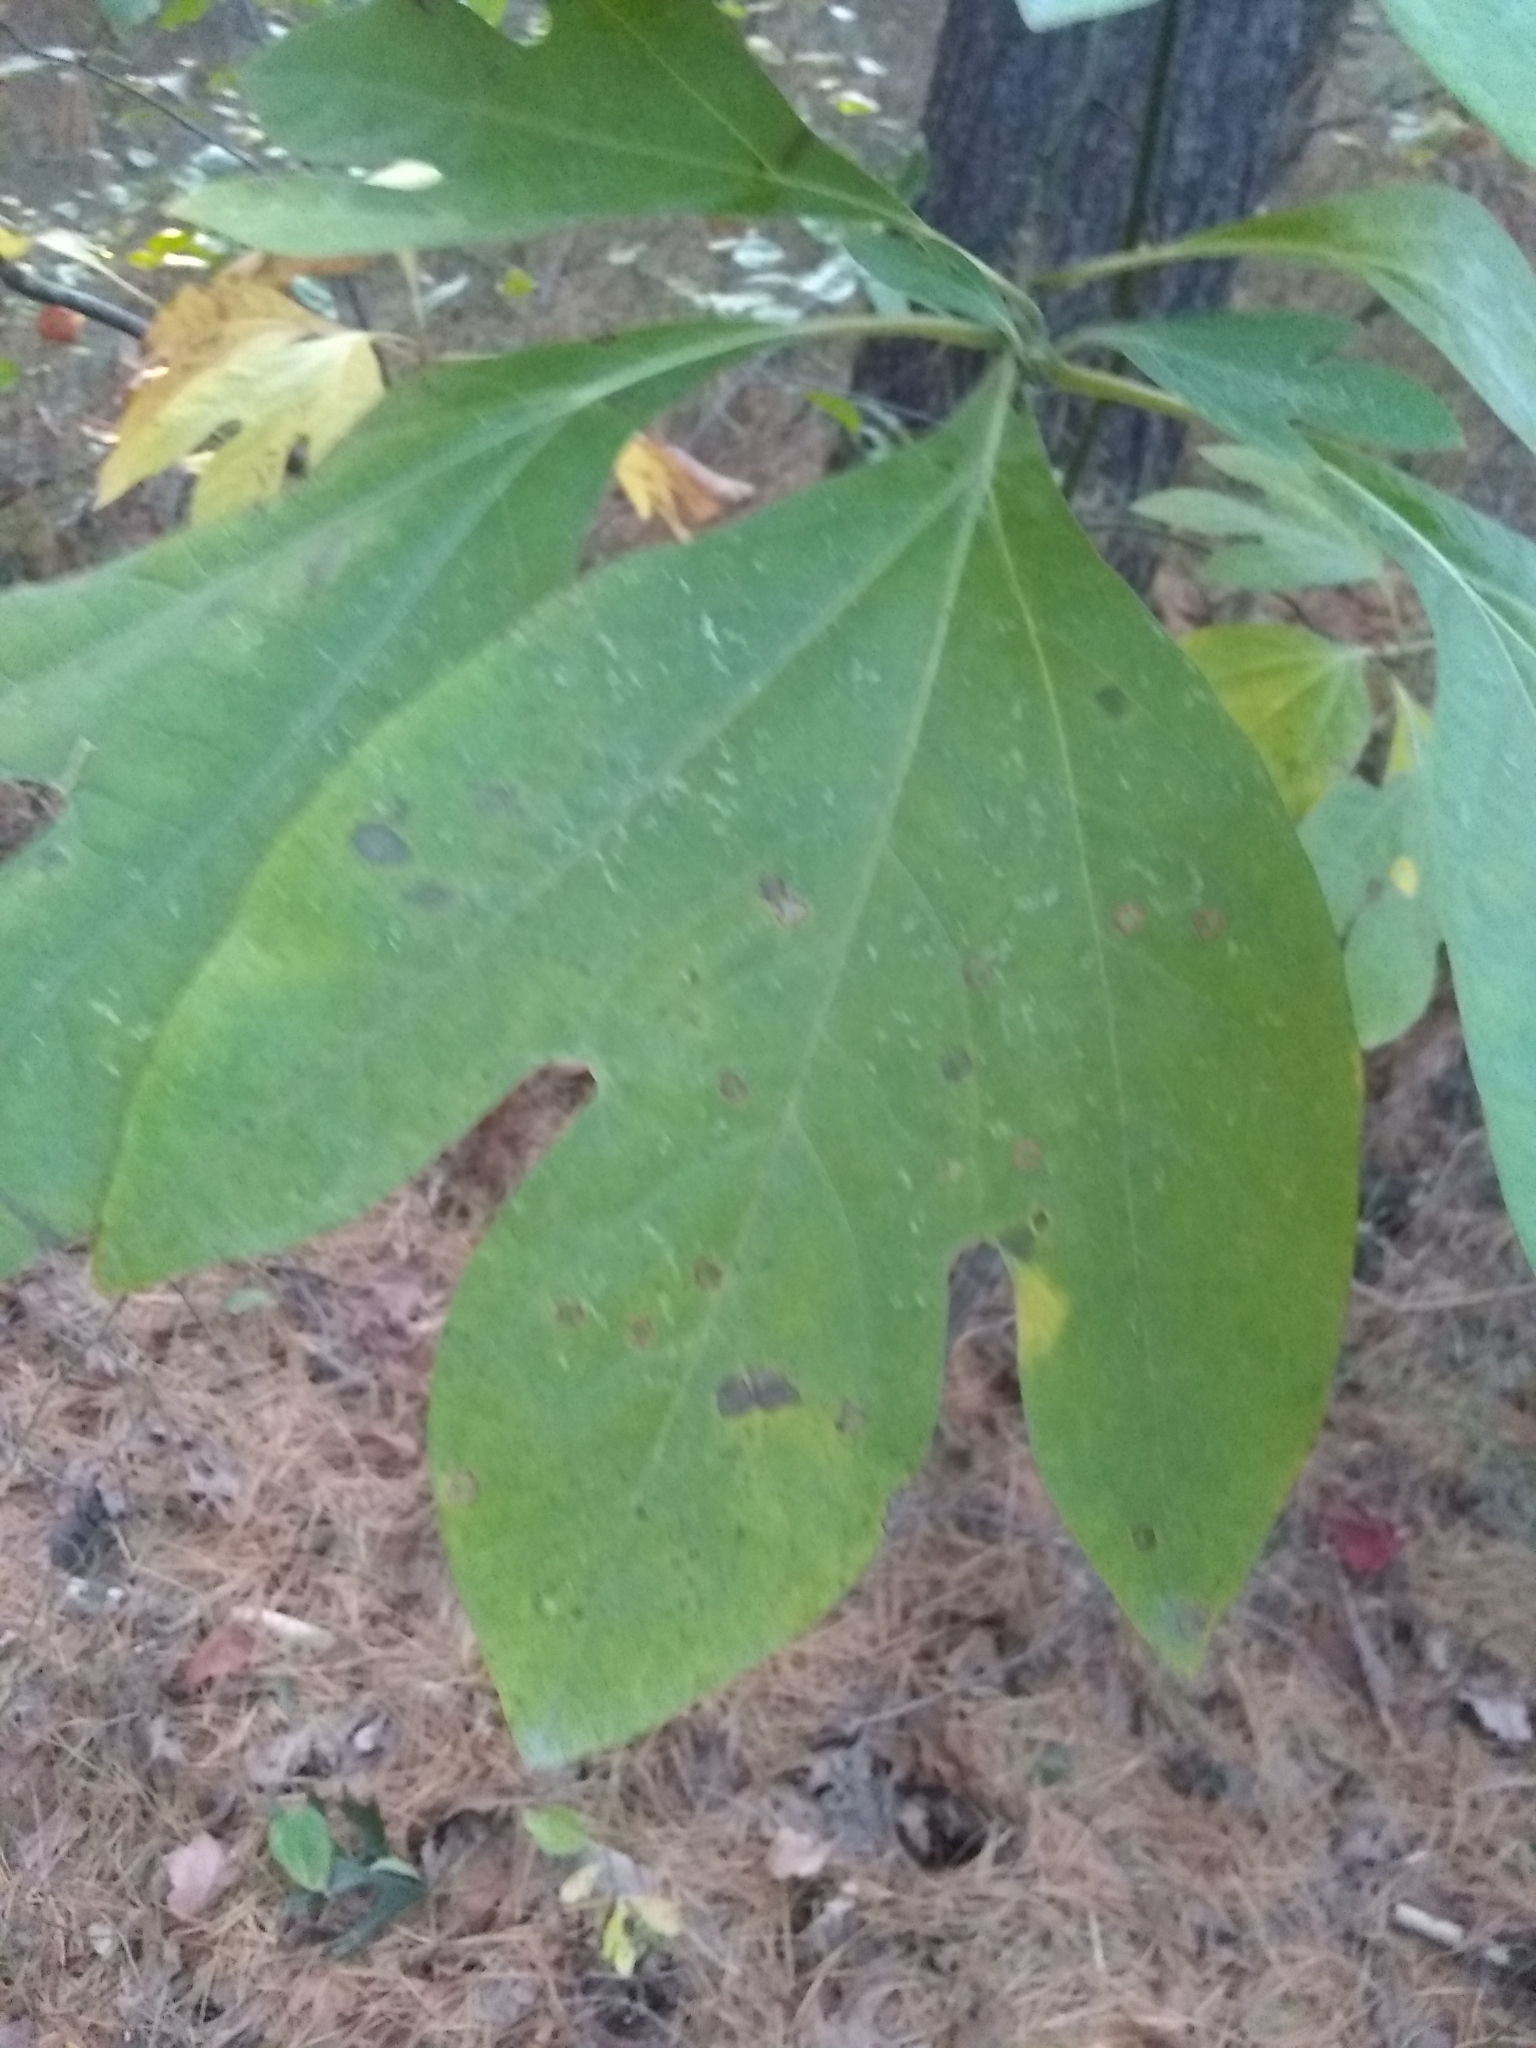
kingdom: Plantae
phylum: Tracheophyta
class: Magnoliopsida
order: Laurales
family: Lauraceae
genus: Sassafras
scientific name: Sassafras albidum
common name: Sassafras
